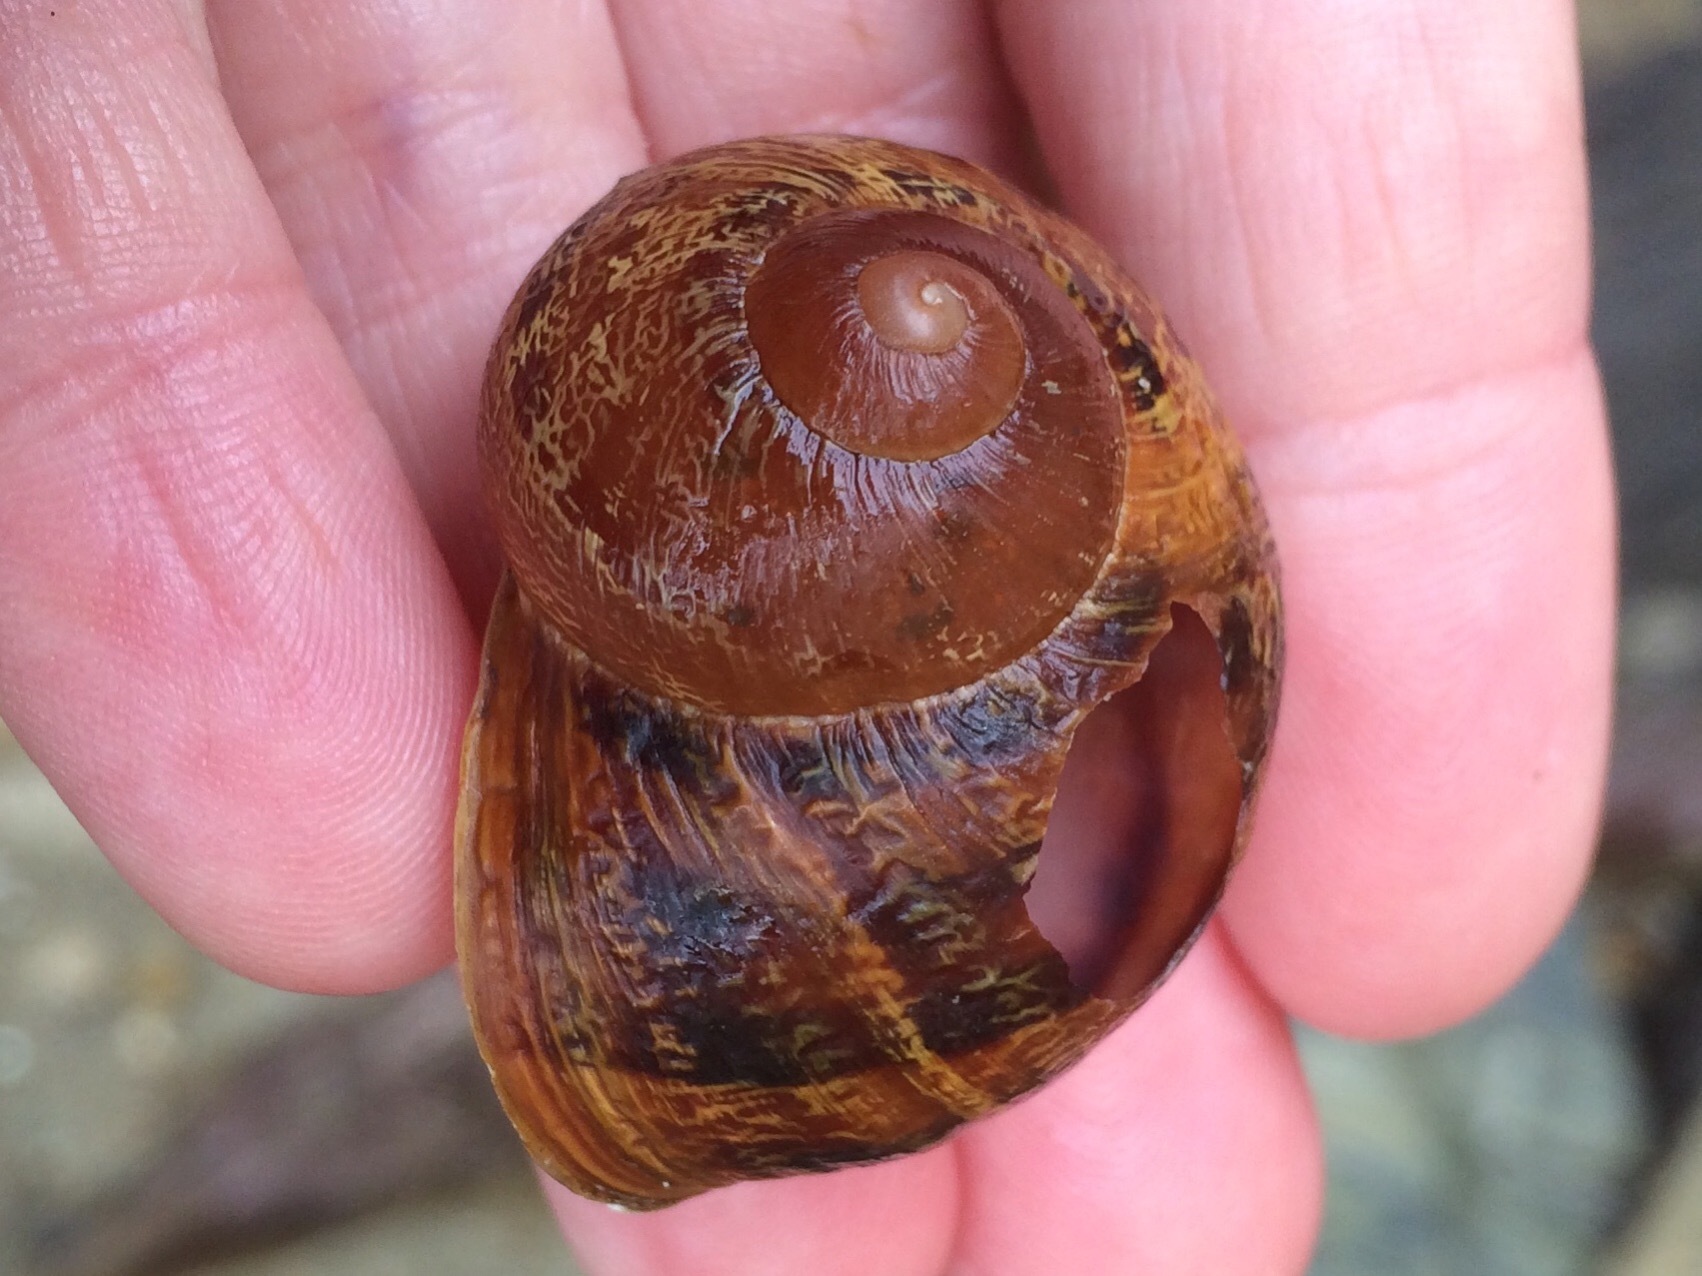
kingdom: Animalia
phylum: Mollusca
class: Gastropoda
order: Stylommatophora
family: Helicidae
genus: Cornu
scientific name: Cornu aspersum
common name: Brown garden snail
